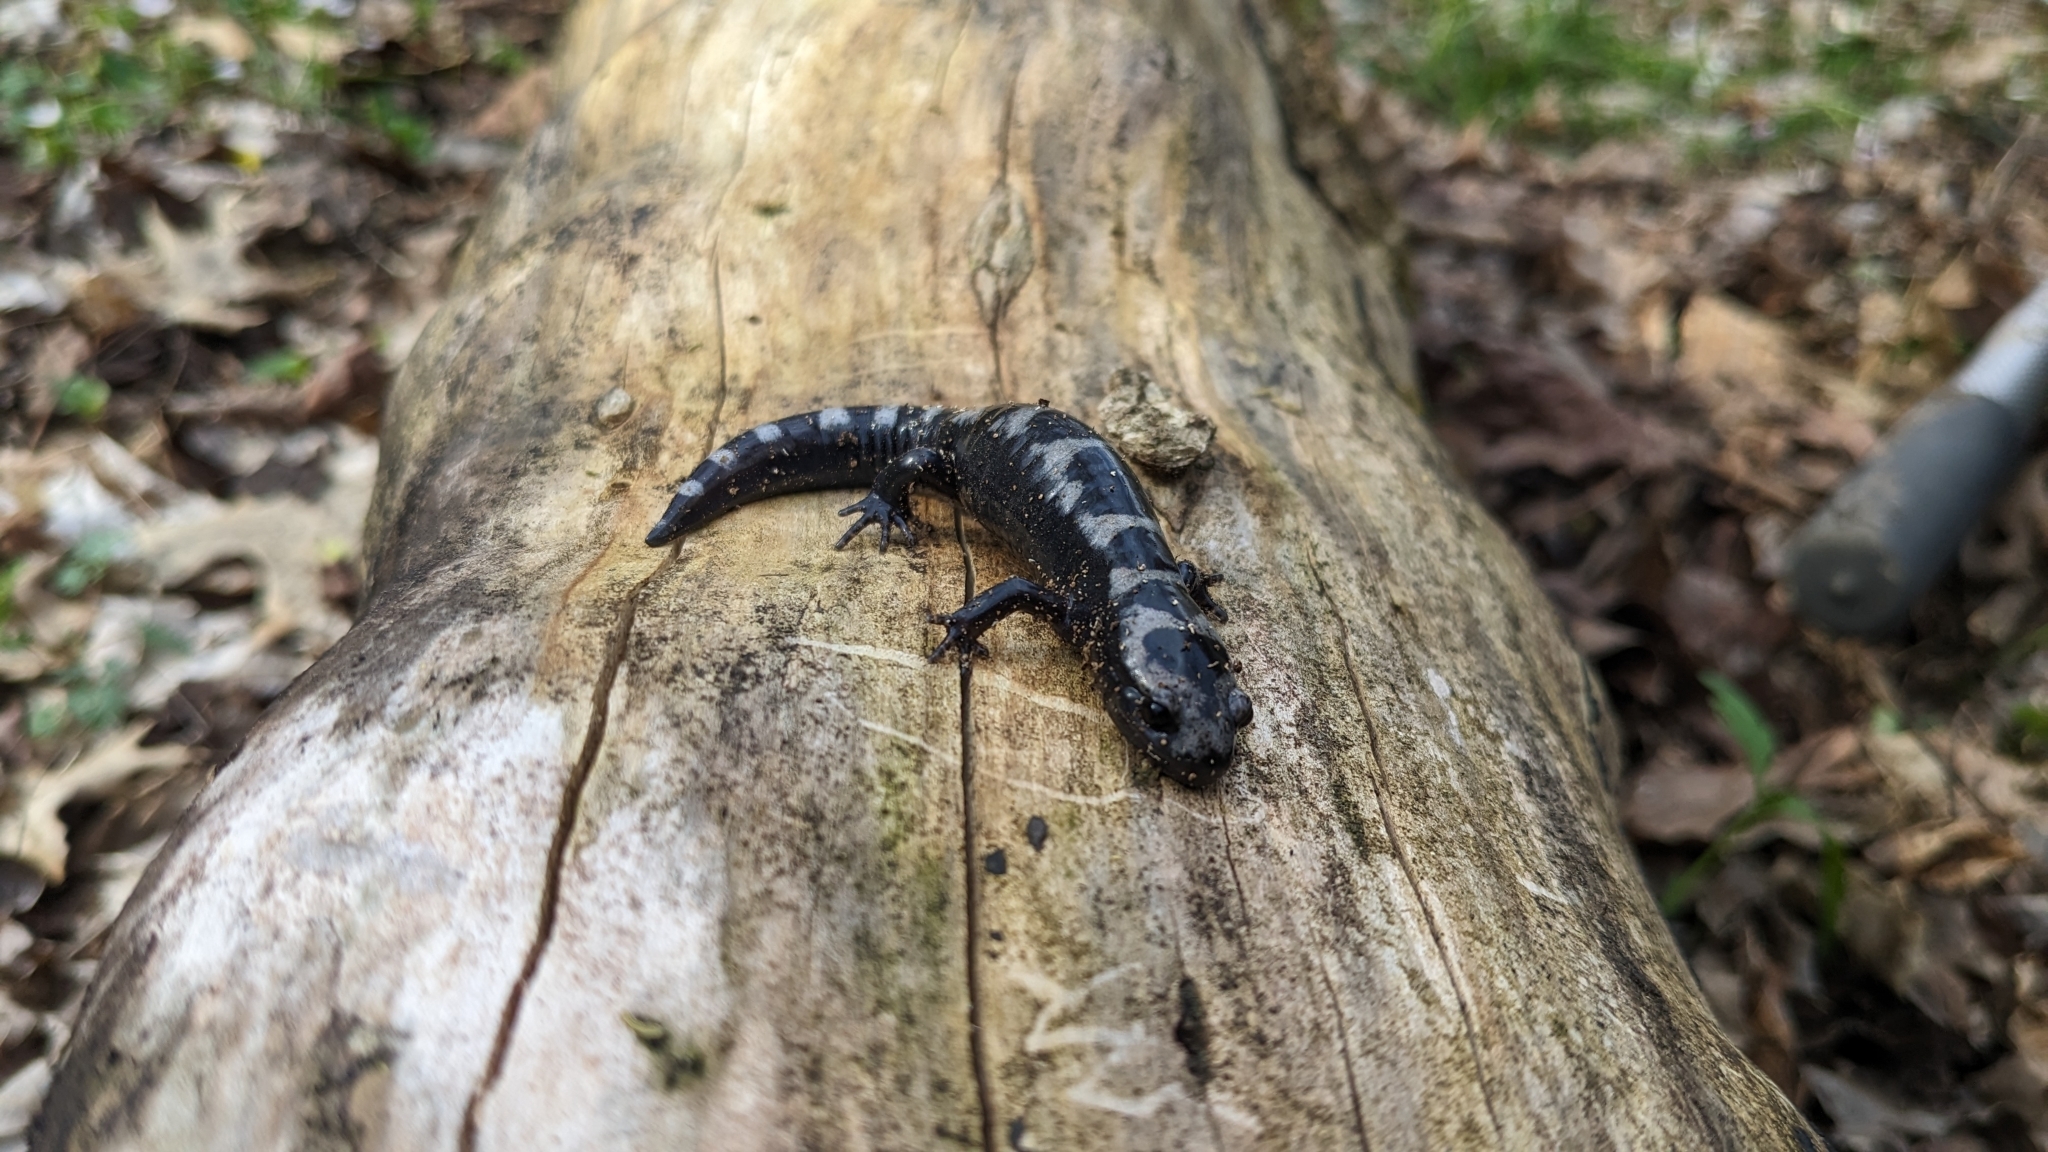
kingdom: Animalia
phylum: Chordata
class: Amphibia
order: Caudata
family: Ambystomatidae
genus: Ambystoma
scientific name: Ambystoma opacum
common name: Marbled salamander
